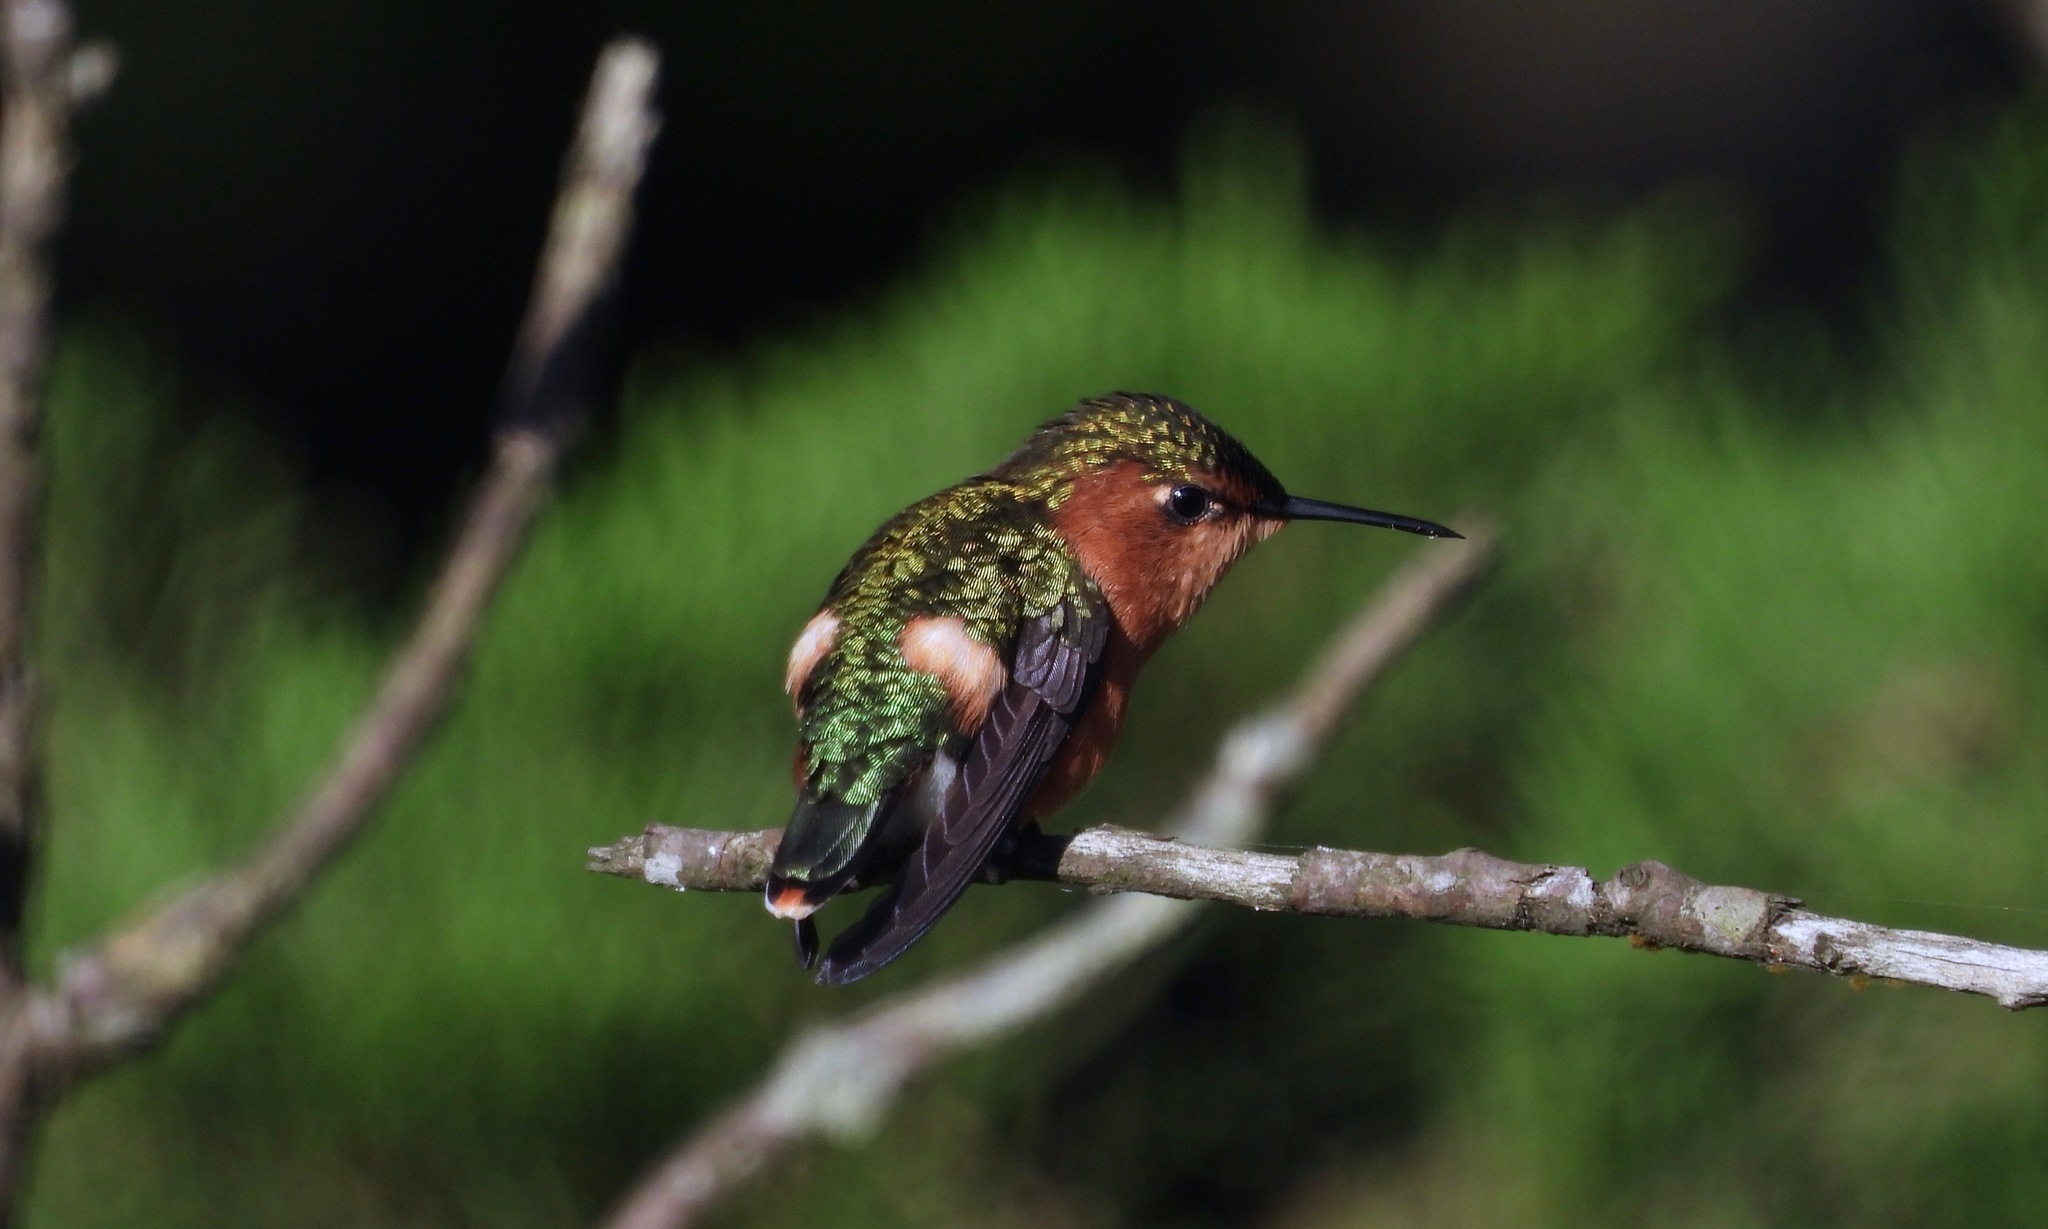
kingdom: Animalia
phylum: Chordata
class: Aves
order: Apodiformes
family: Trochilidae
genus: Tilmatura
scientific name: Tilmatura dupontii
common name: Sparkling-tailed woodstar
